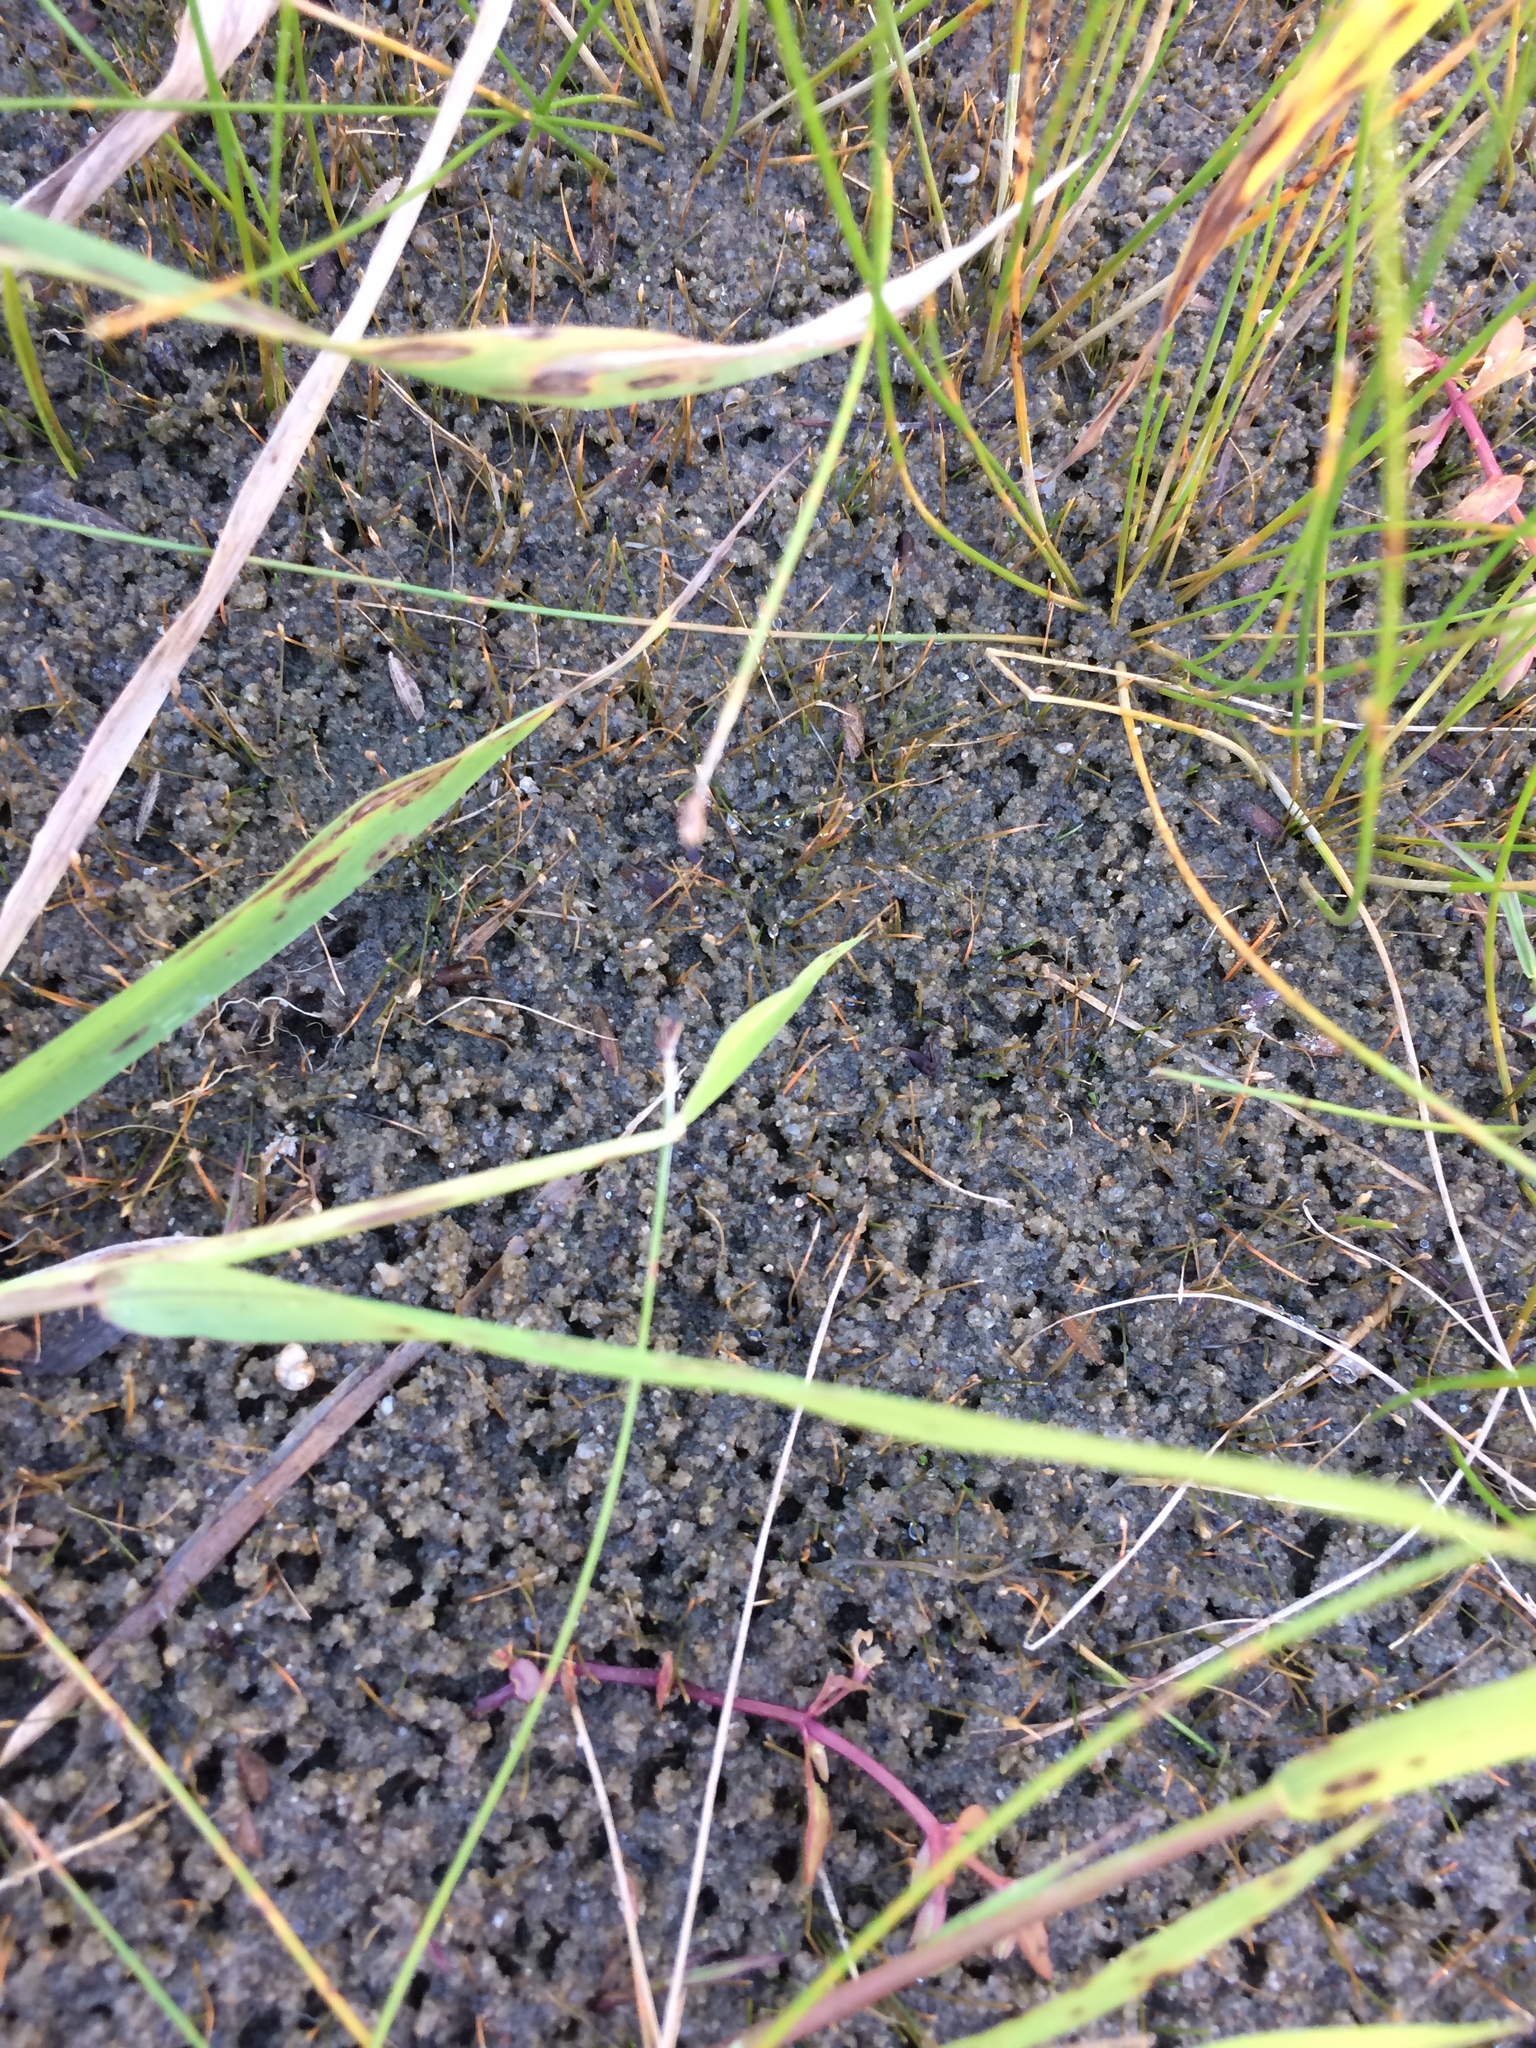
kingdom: Plantae
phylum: Tracheophyta
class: Liliopsida
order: Poales
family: Cyperaceae
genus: Eleocharis
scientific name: Eleocharis acicularis
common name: Needle spike-rush
